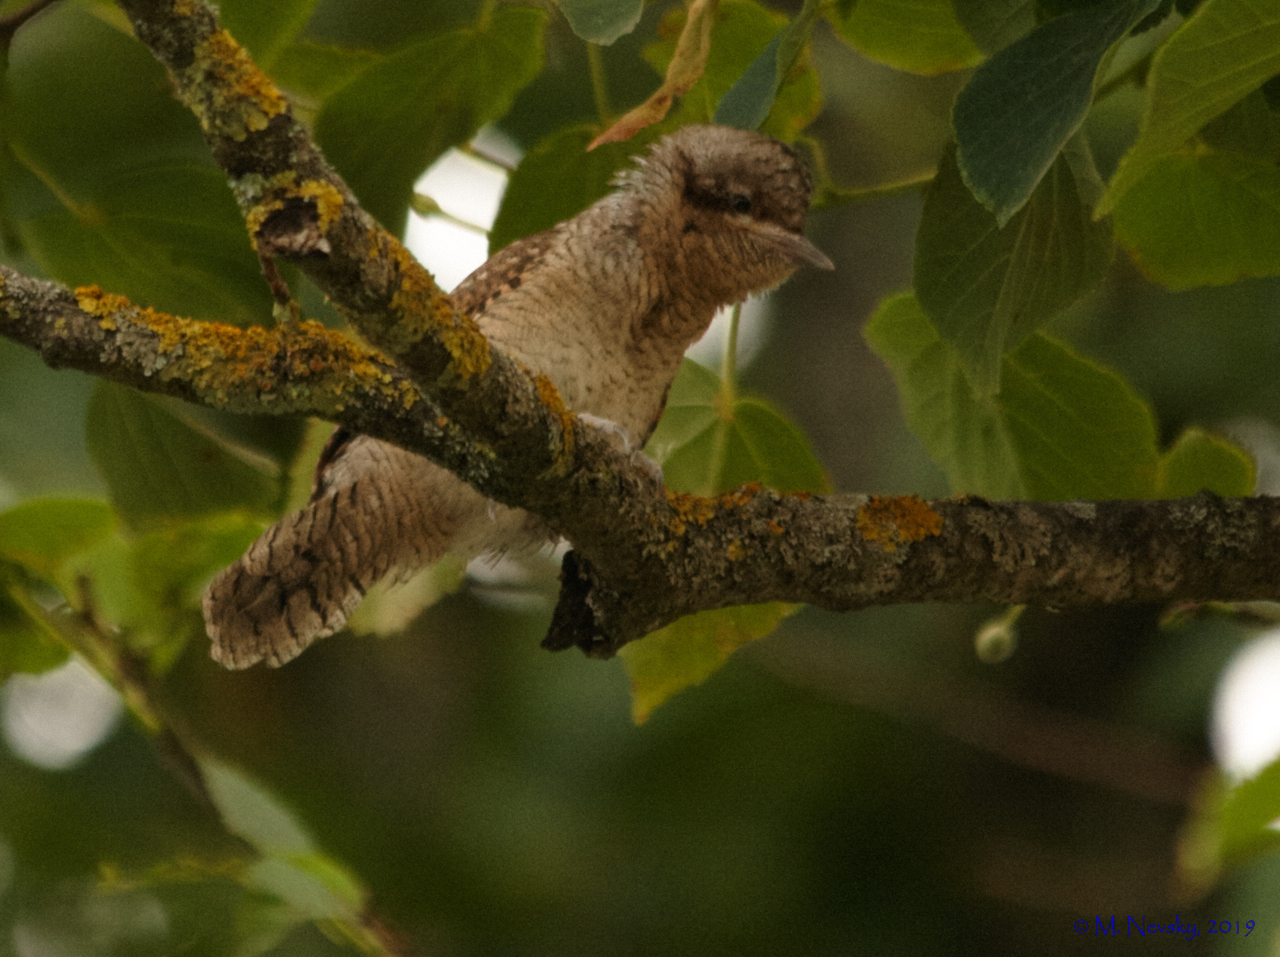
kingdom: Animalia
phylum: Chordata
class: Aves
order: Piciformes
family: Picidae
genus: Jynx
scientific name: Jynx torquilla
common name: Eurasian wryneck
